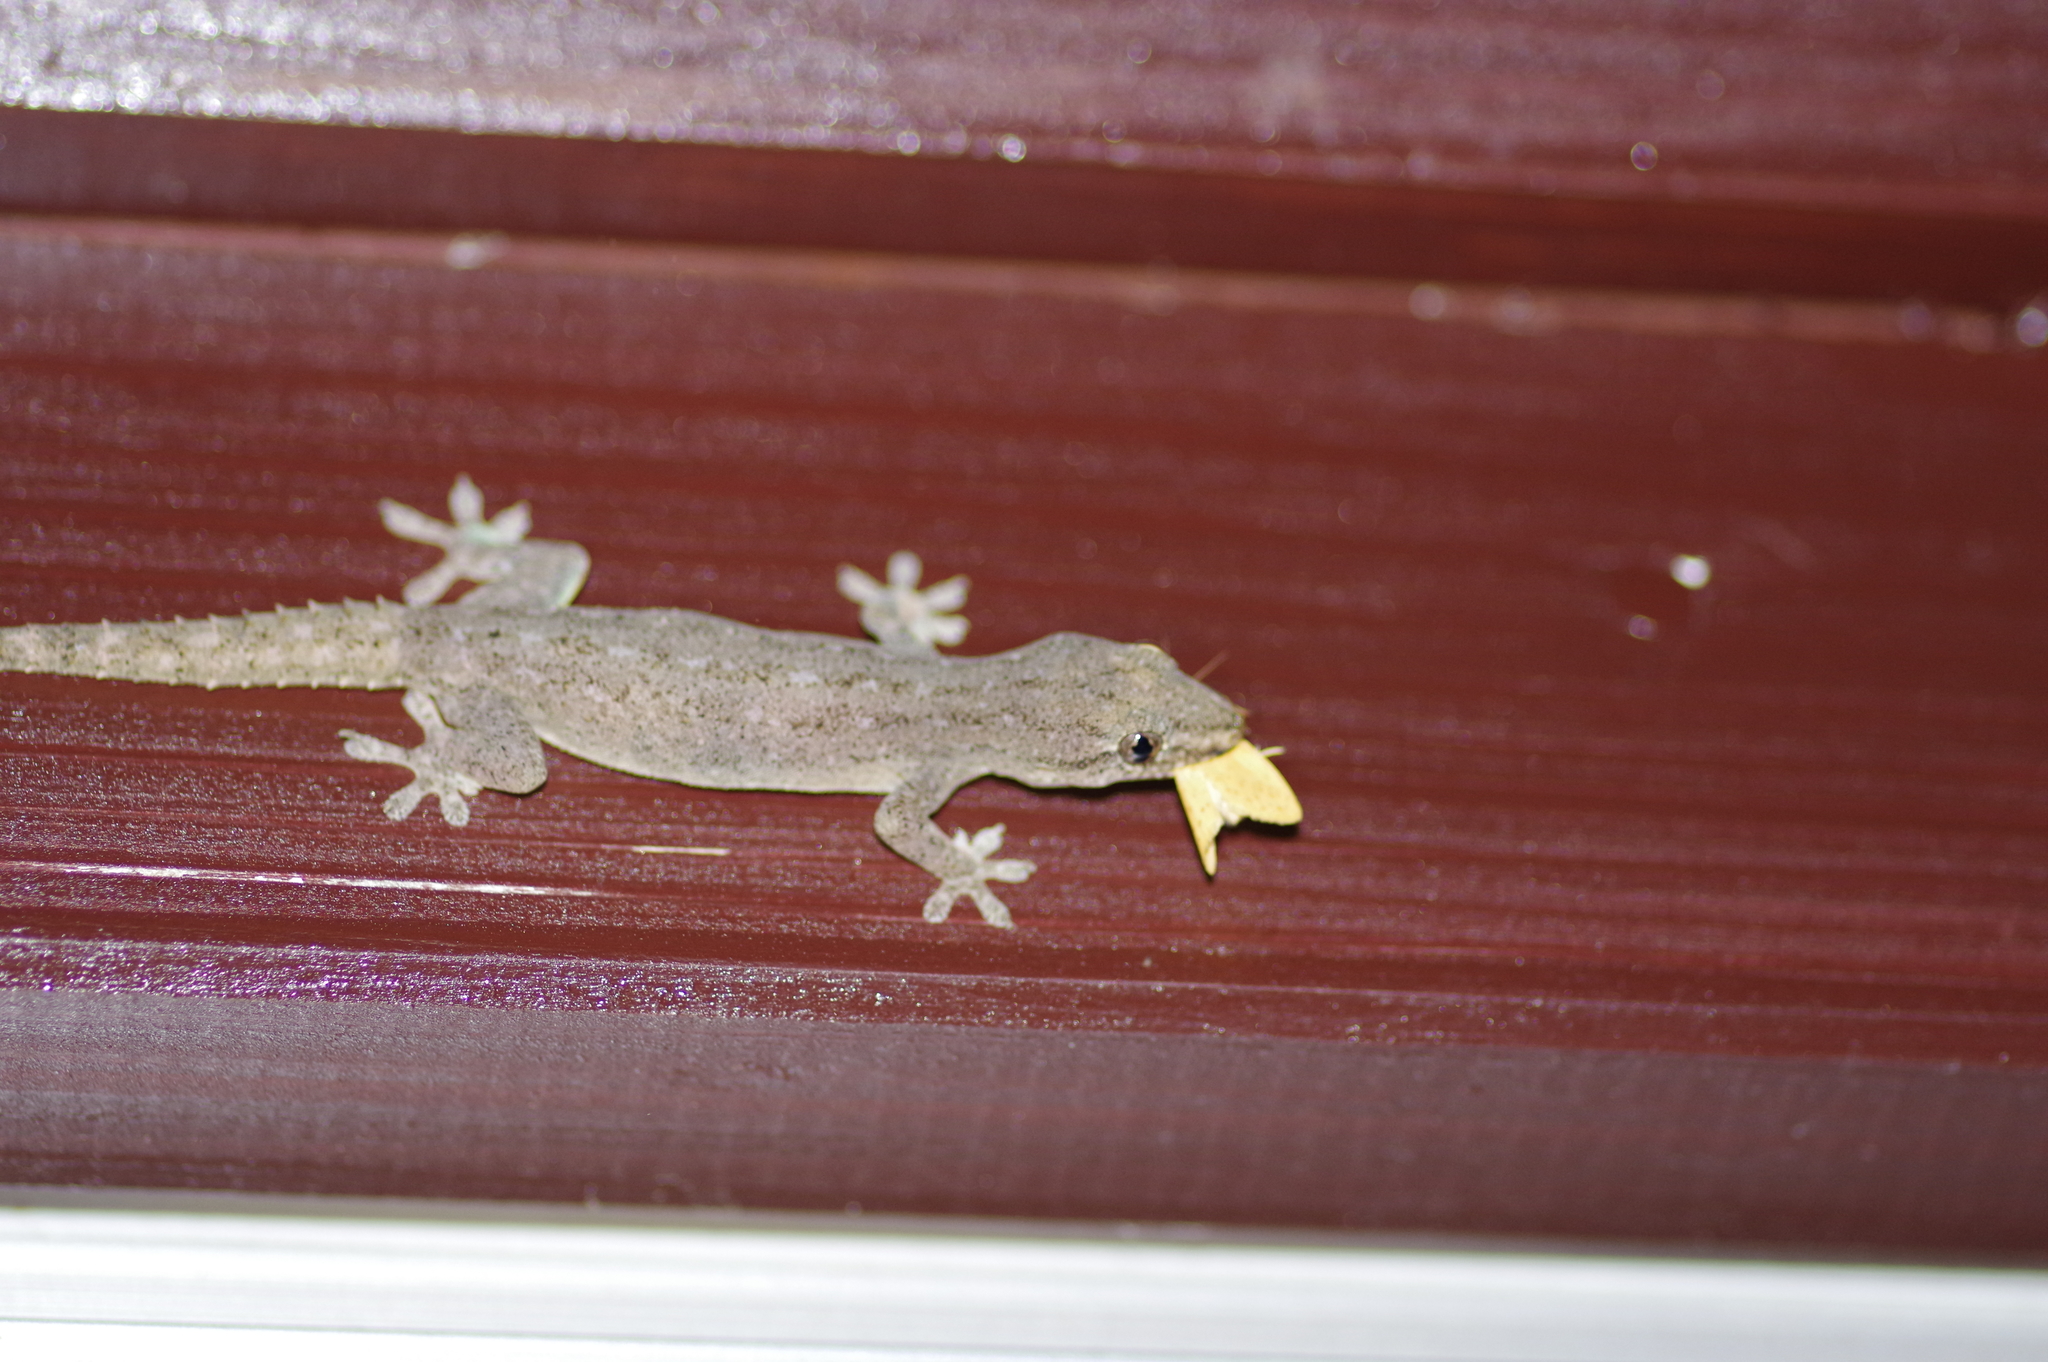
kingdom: Animalia
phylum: Chordata
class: Squamata
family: Gekkonidae
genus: Hemidactylus
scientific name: Hemidactylus frenatus
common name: Common house gecko
